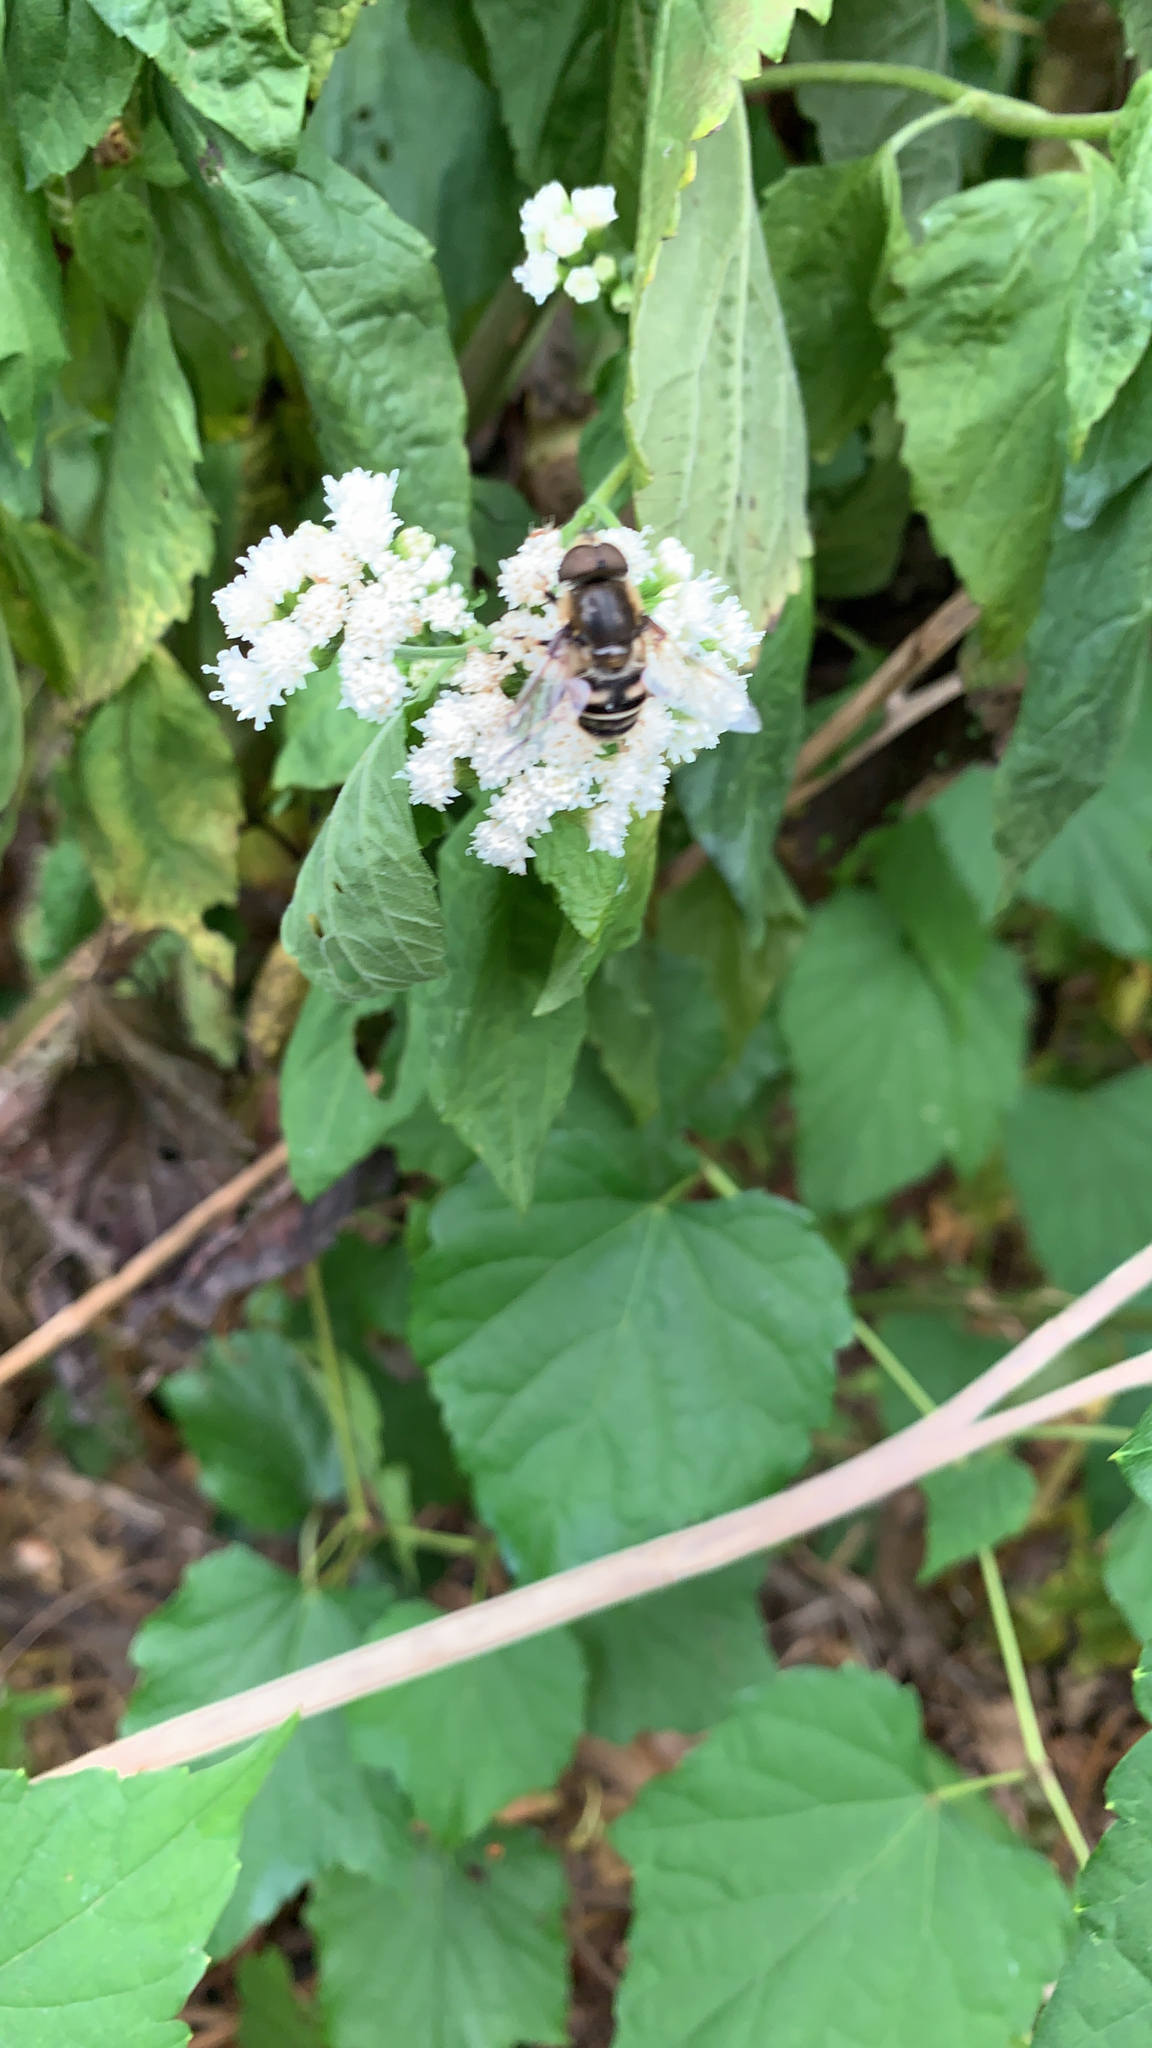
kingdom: Animalia
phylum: Arthropoda
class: Insecta
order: Diptera
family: Syrphidae
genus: Eristalis
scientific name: Eristalis dimidiata
